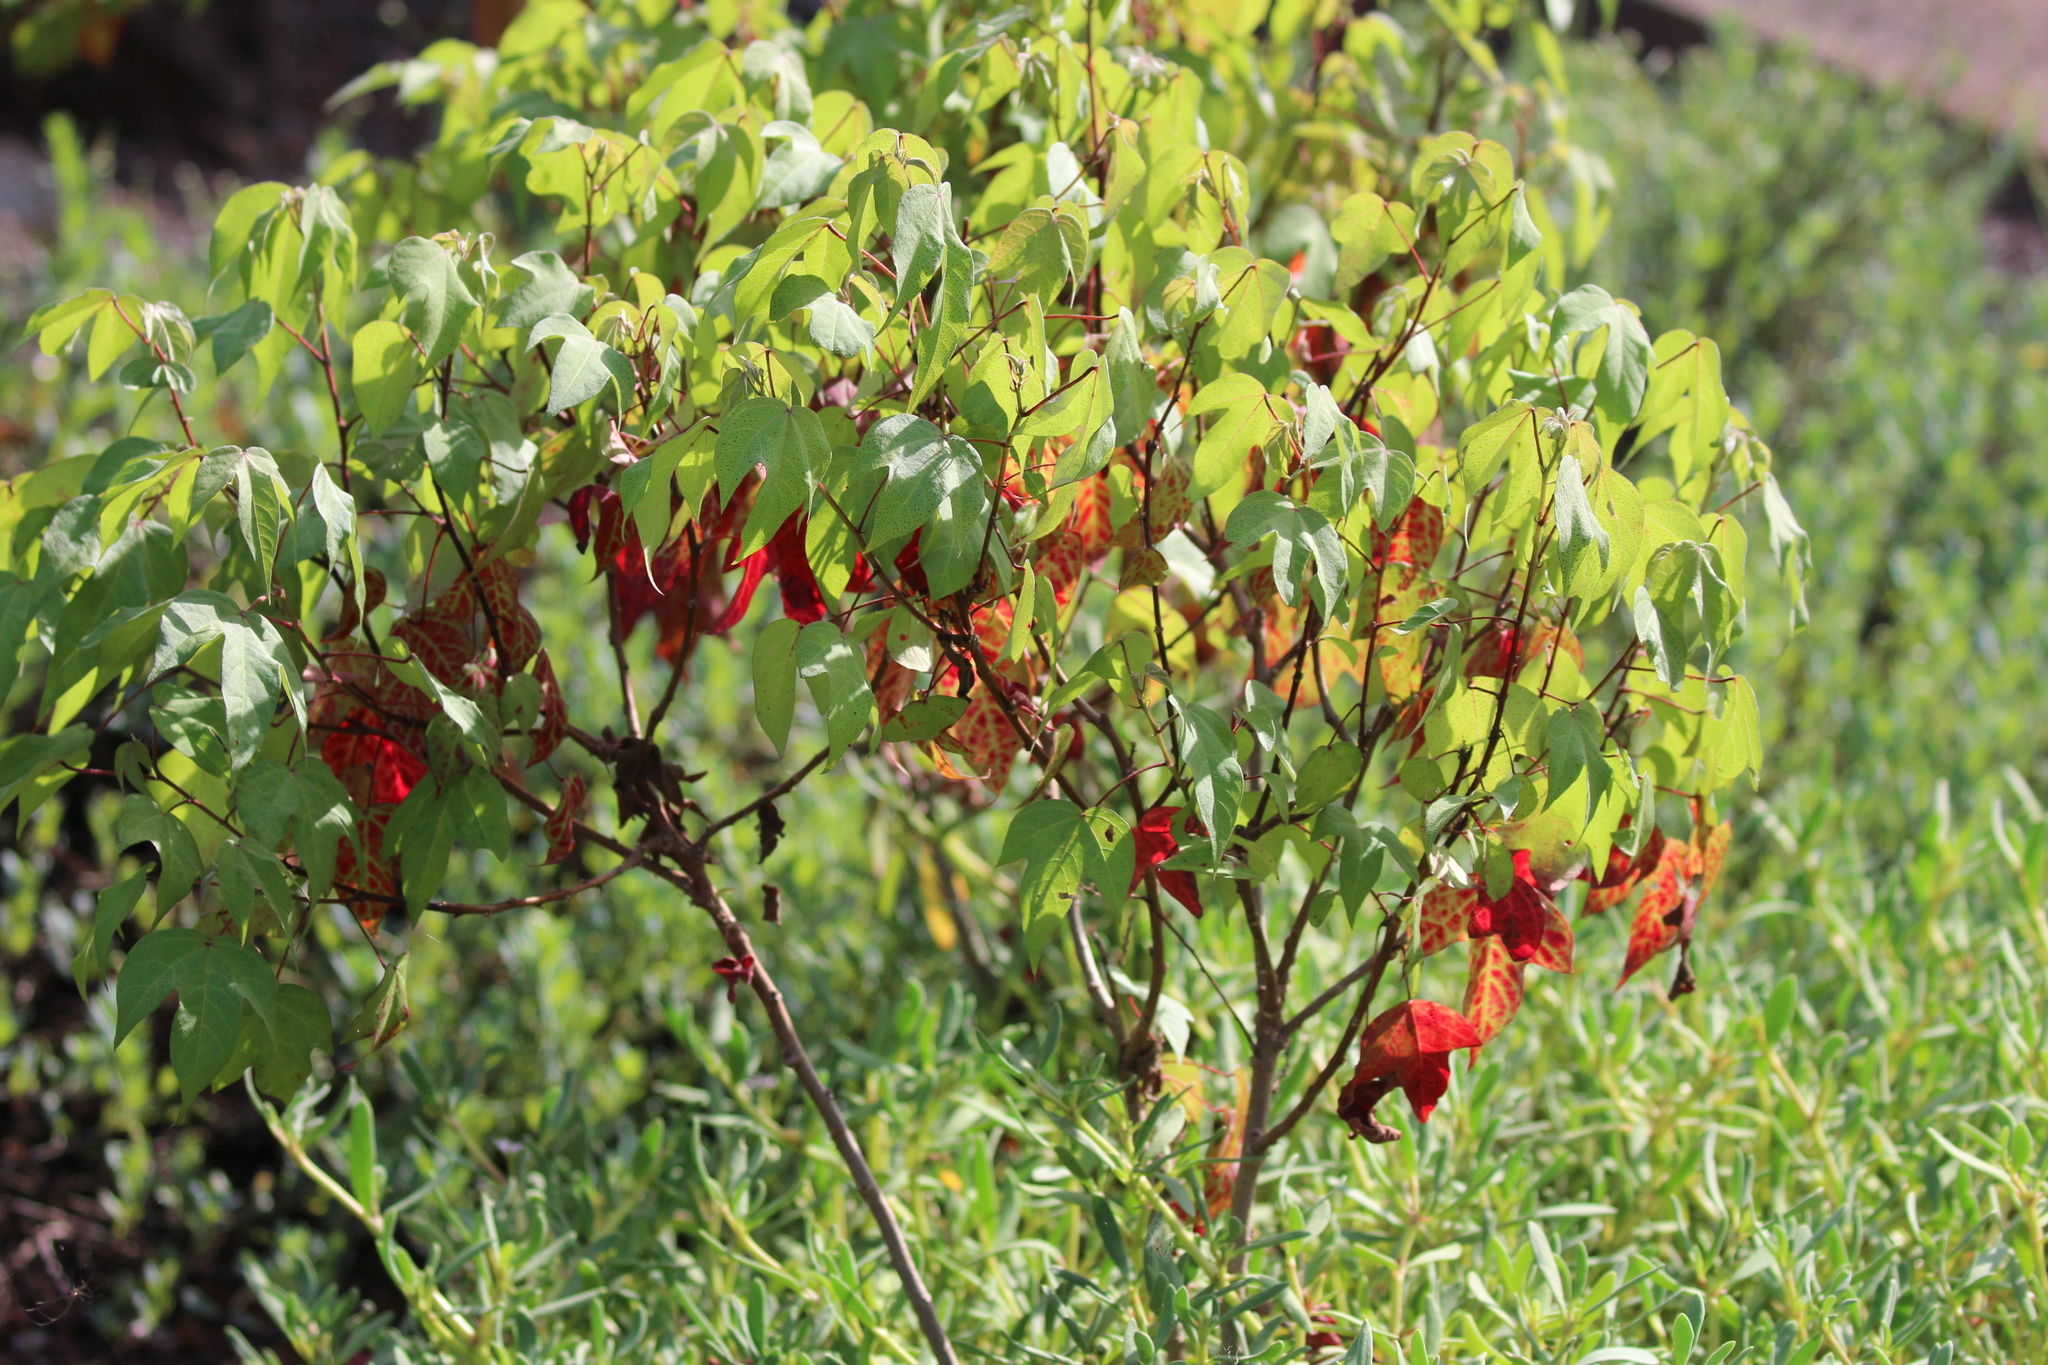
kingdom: Plantae
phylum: Tracheophyta
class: Magnoliopsida
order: Malvales
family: Malvaceae
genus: Gossypium
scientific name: Gossypium darwinii
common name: Darwin's cotton
